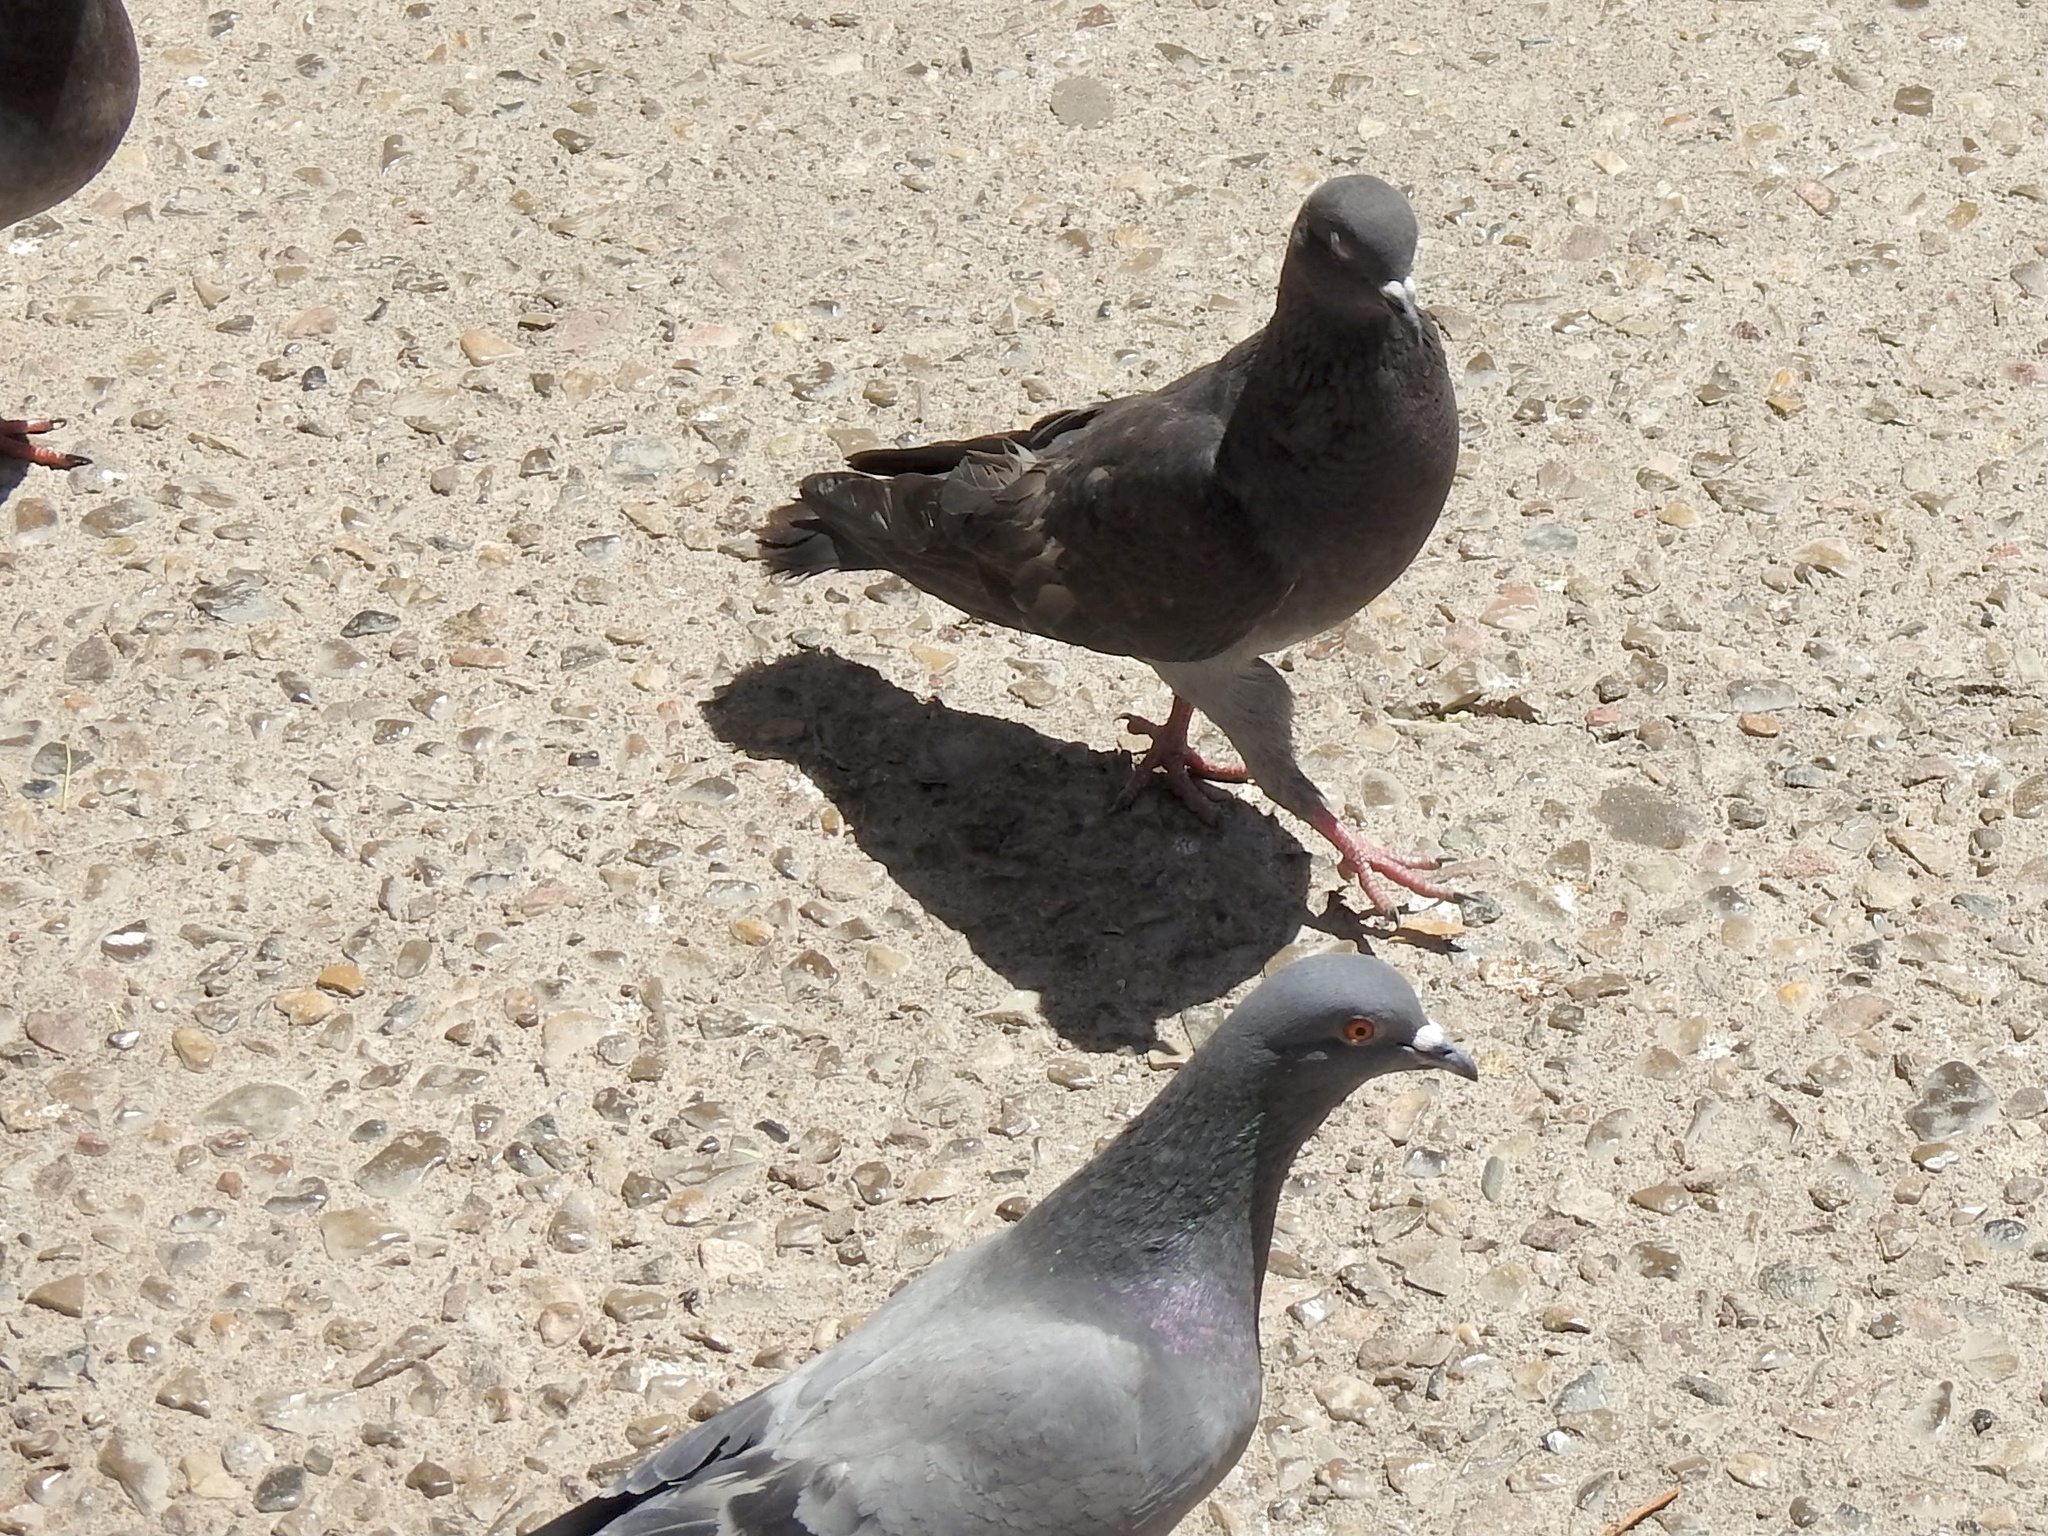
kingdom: Animalia
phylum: Chordata
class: Aves
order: Columbiformes
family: Columbidae
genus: Columba
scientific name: Columba livia
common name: Rock pigeon
